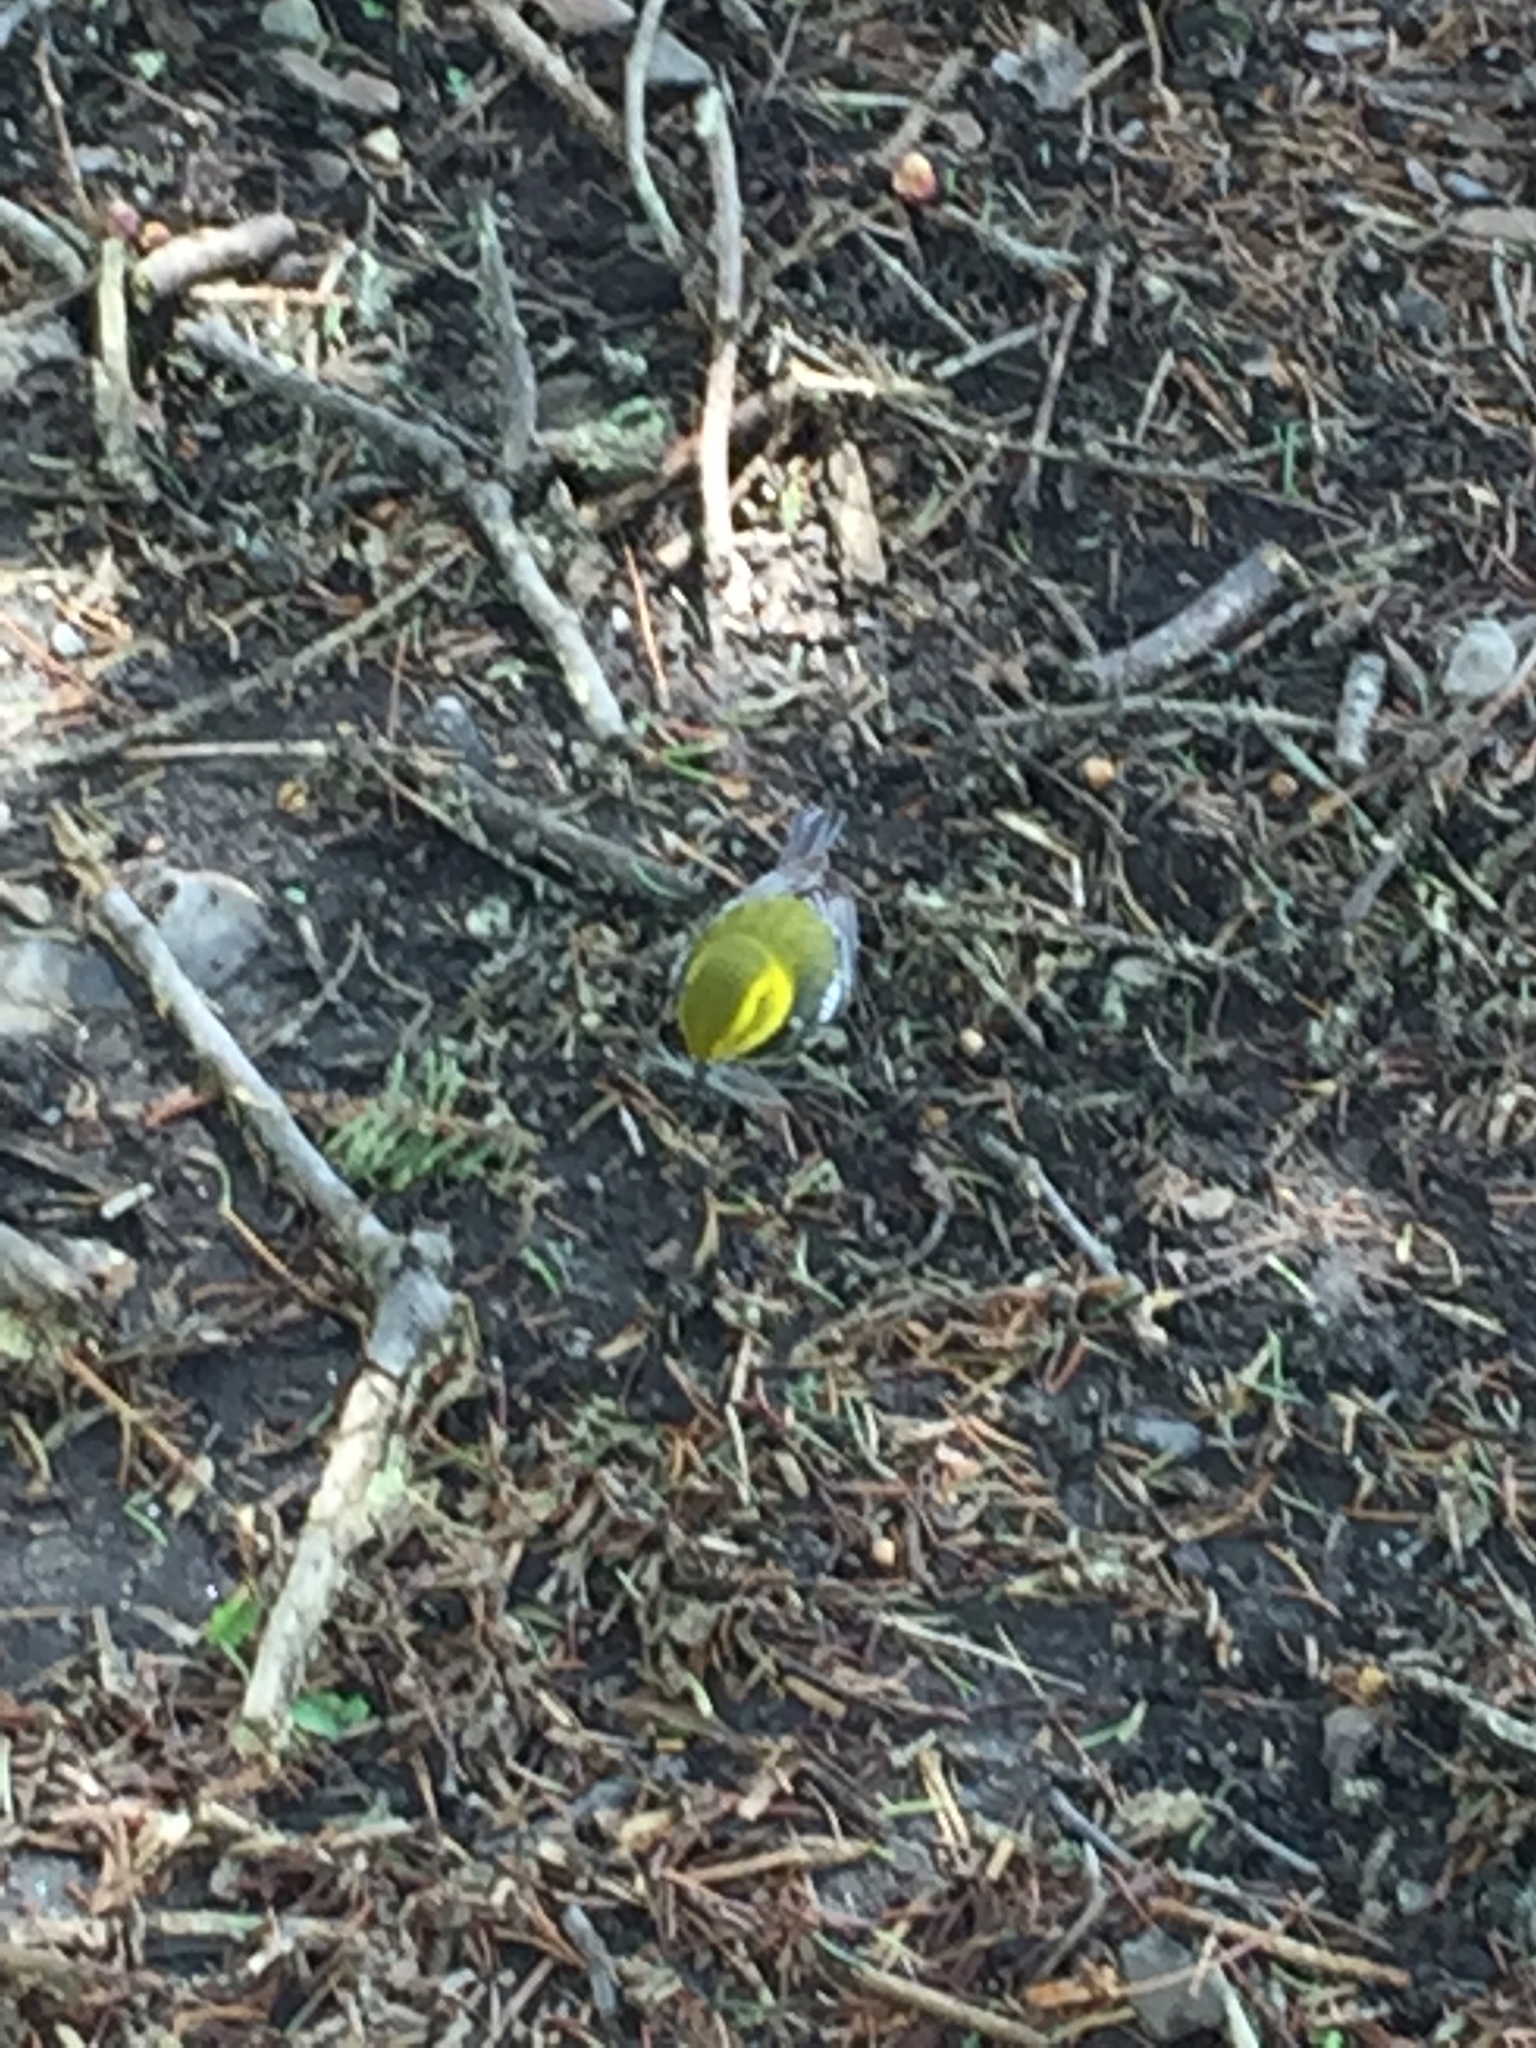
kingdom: Animalia
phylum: Chordata
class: Aves
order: Passeriformes
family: Parulidae
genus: Setophaga
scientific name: Setophaga virens
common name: Black-throated green warbler
